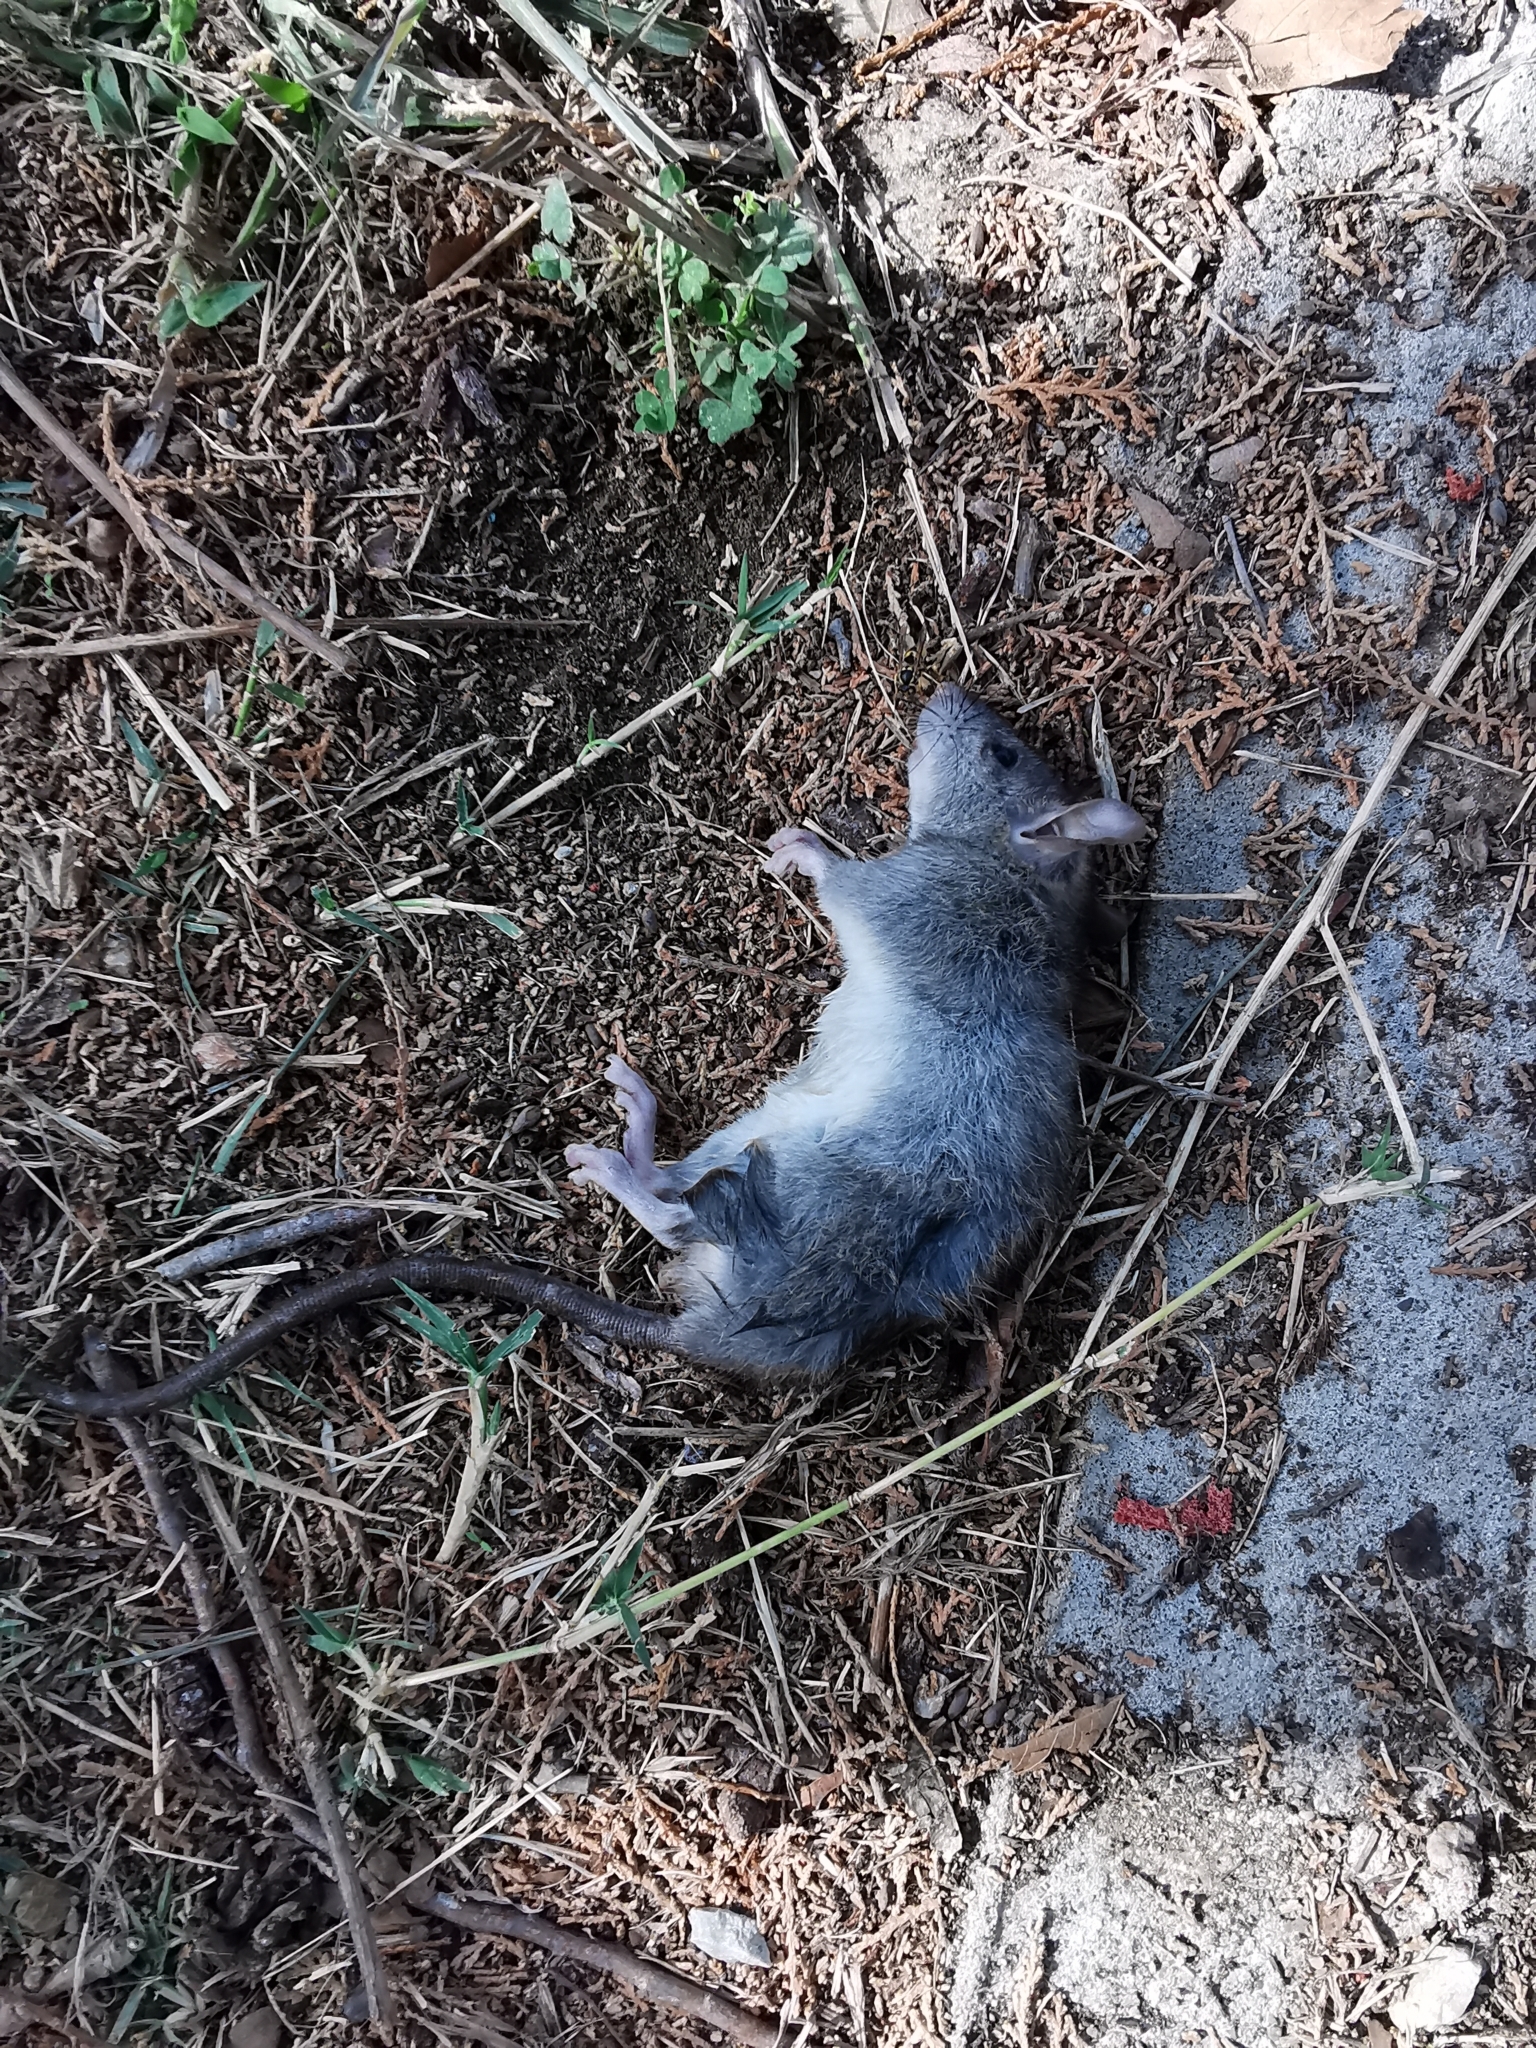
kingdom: Animalia
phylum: Chordata
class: Mammalia
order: Rodentia
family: Muridae
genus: Rattus
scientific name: Rattus rattus
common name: Black rat
